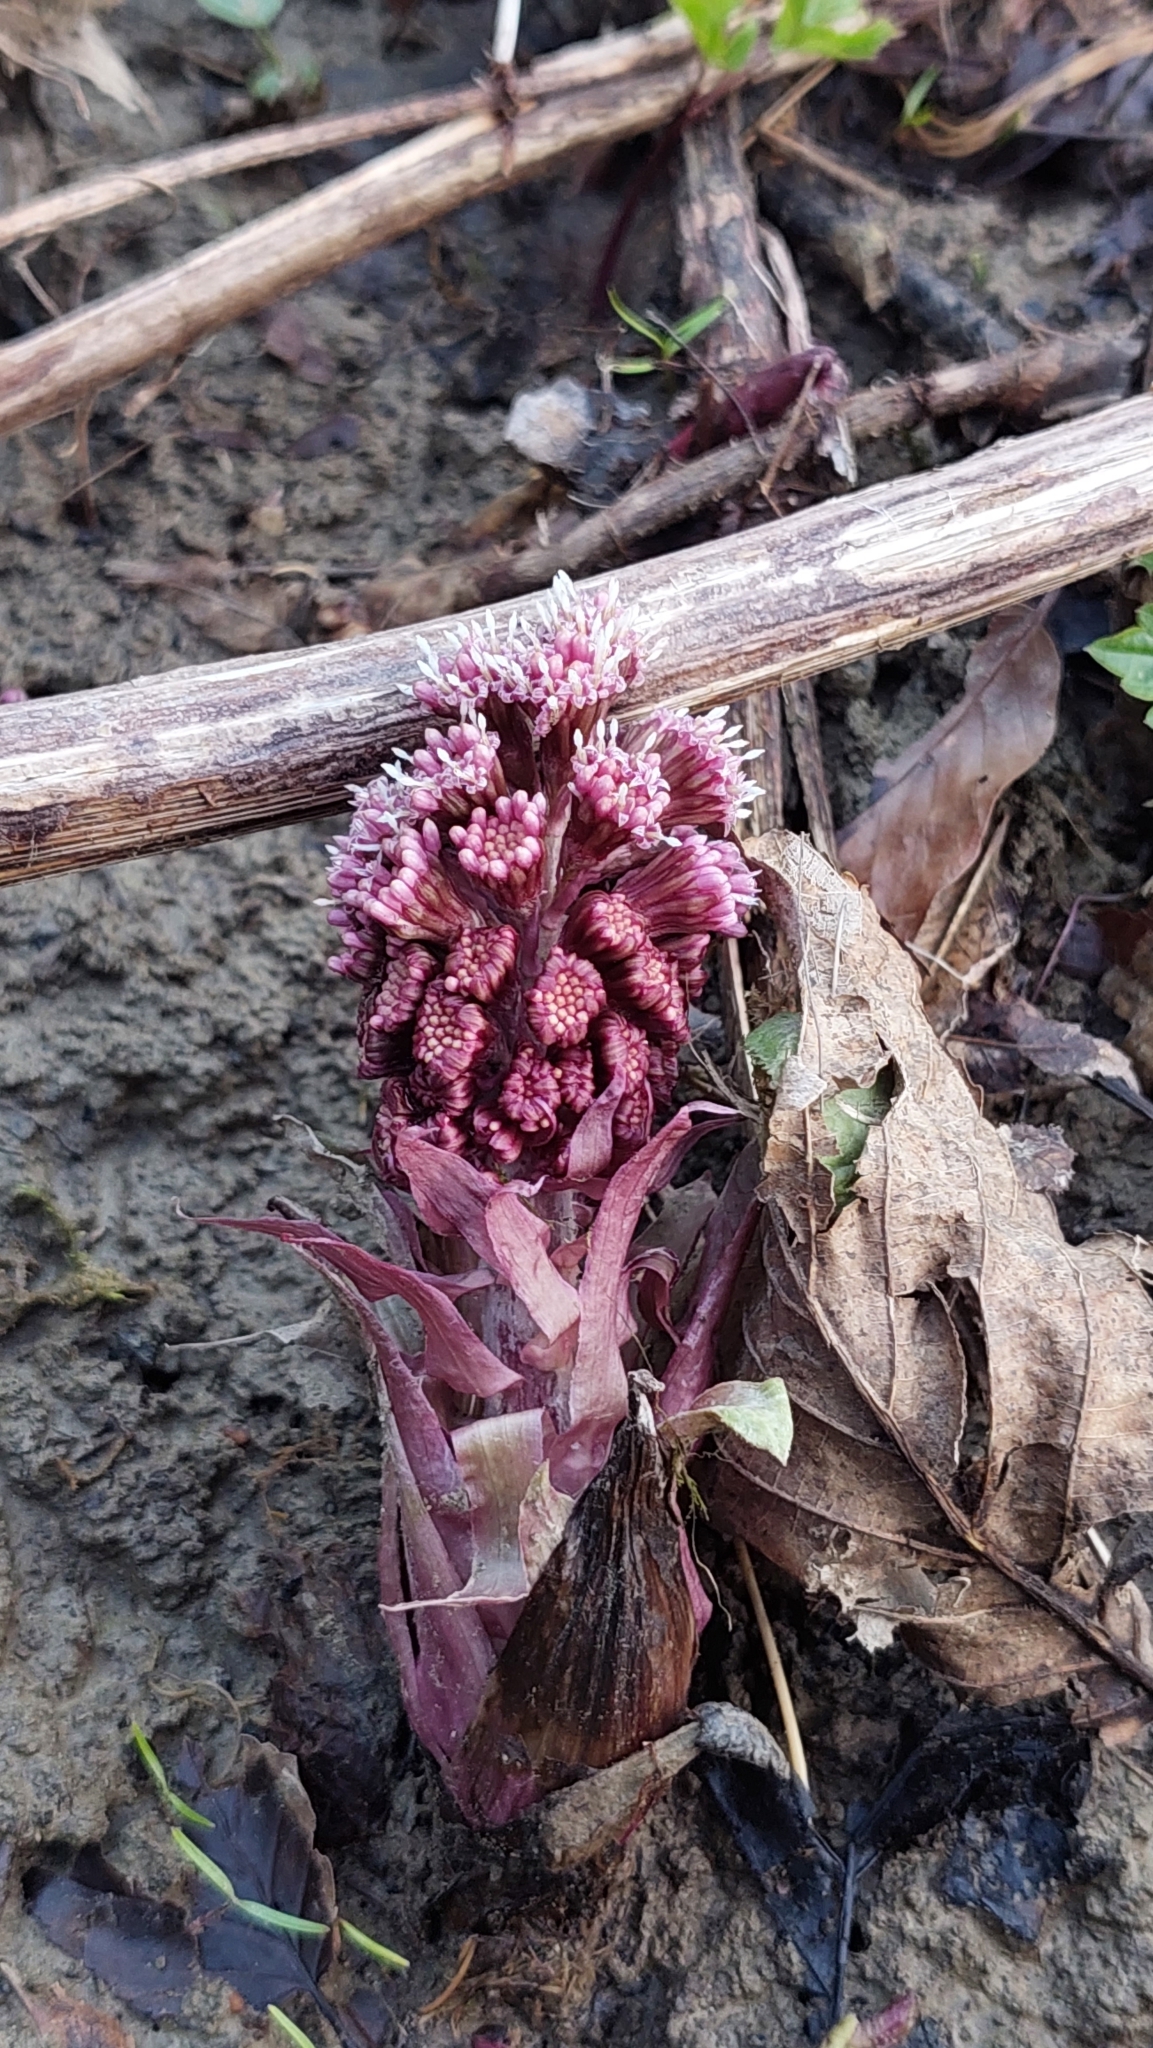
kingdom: Plantae
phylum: Tracheophyta
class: Magnoliopsida
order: Asterales
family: Asteraceae
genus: Petasites
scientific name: Petasites hybridus
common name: Butterbur
